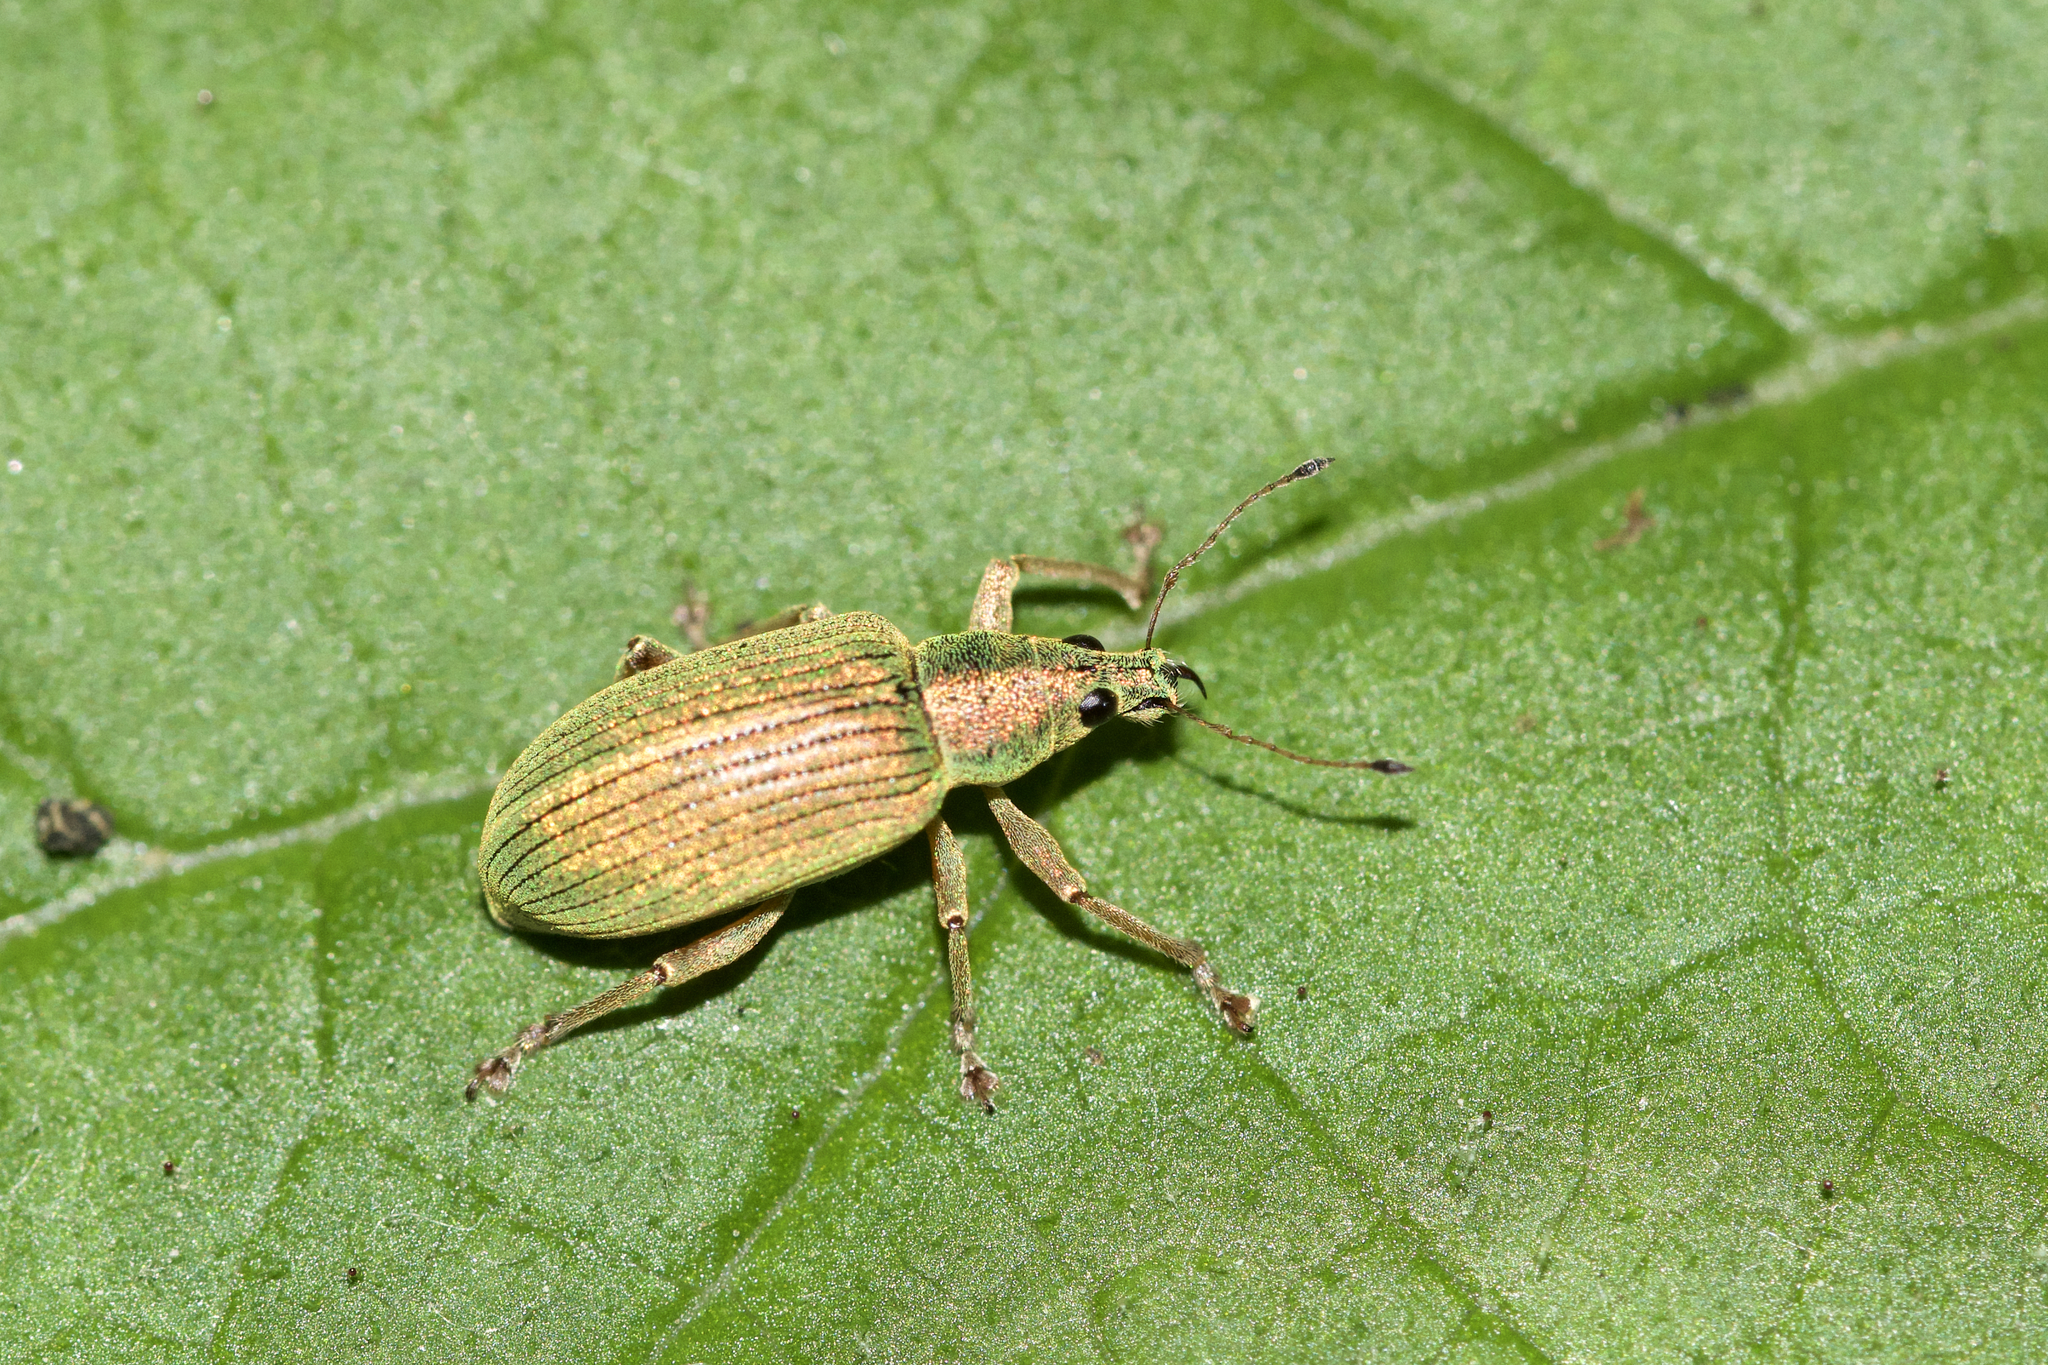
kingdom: Animalia
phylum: Arthropoda
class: Insecta
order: Coleoptera
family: Curculionidae
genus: Polydrusus
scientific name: Polydrusus formosus
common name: Weevil
